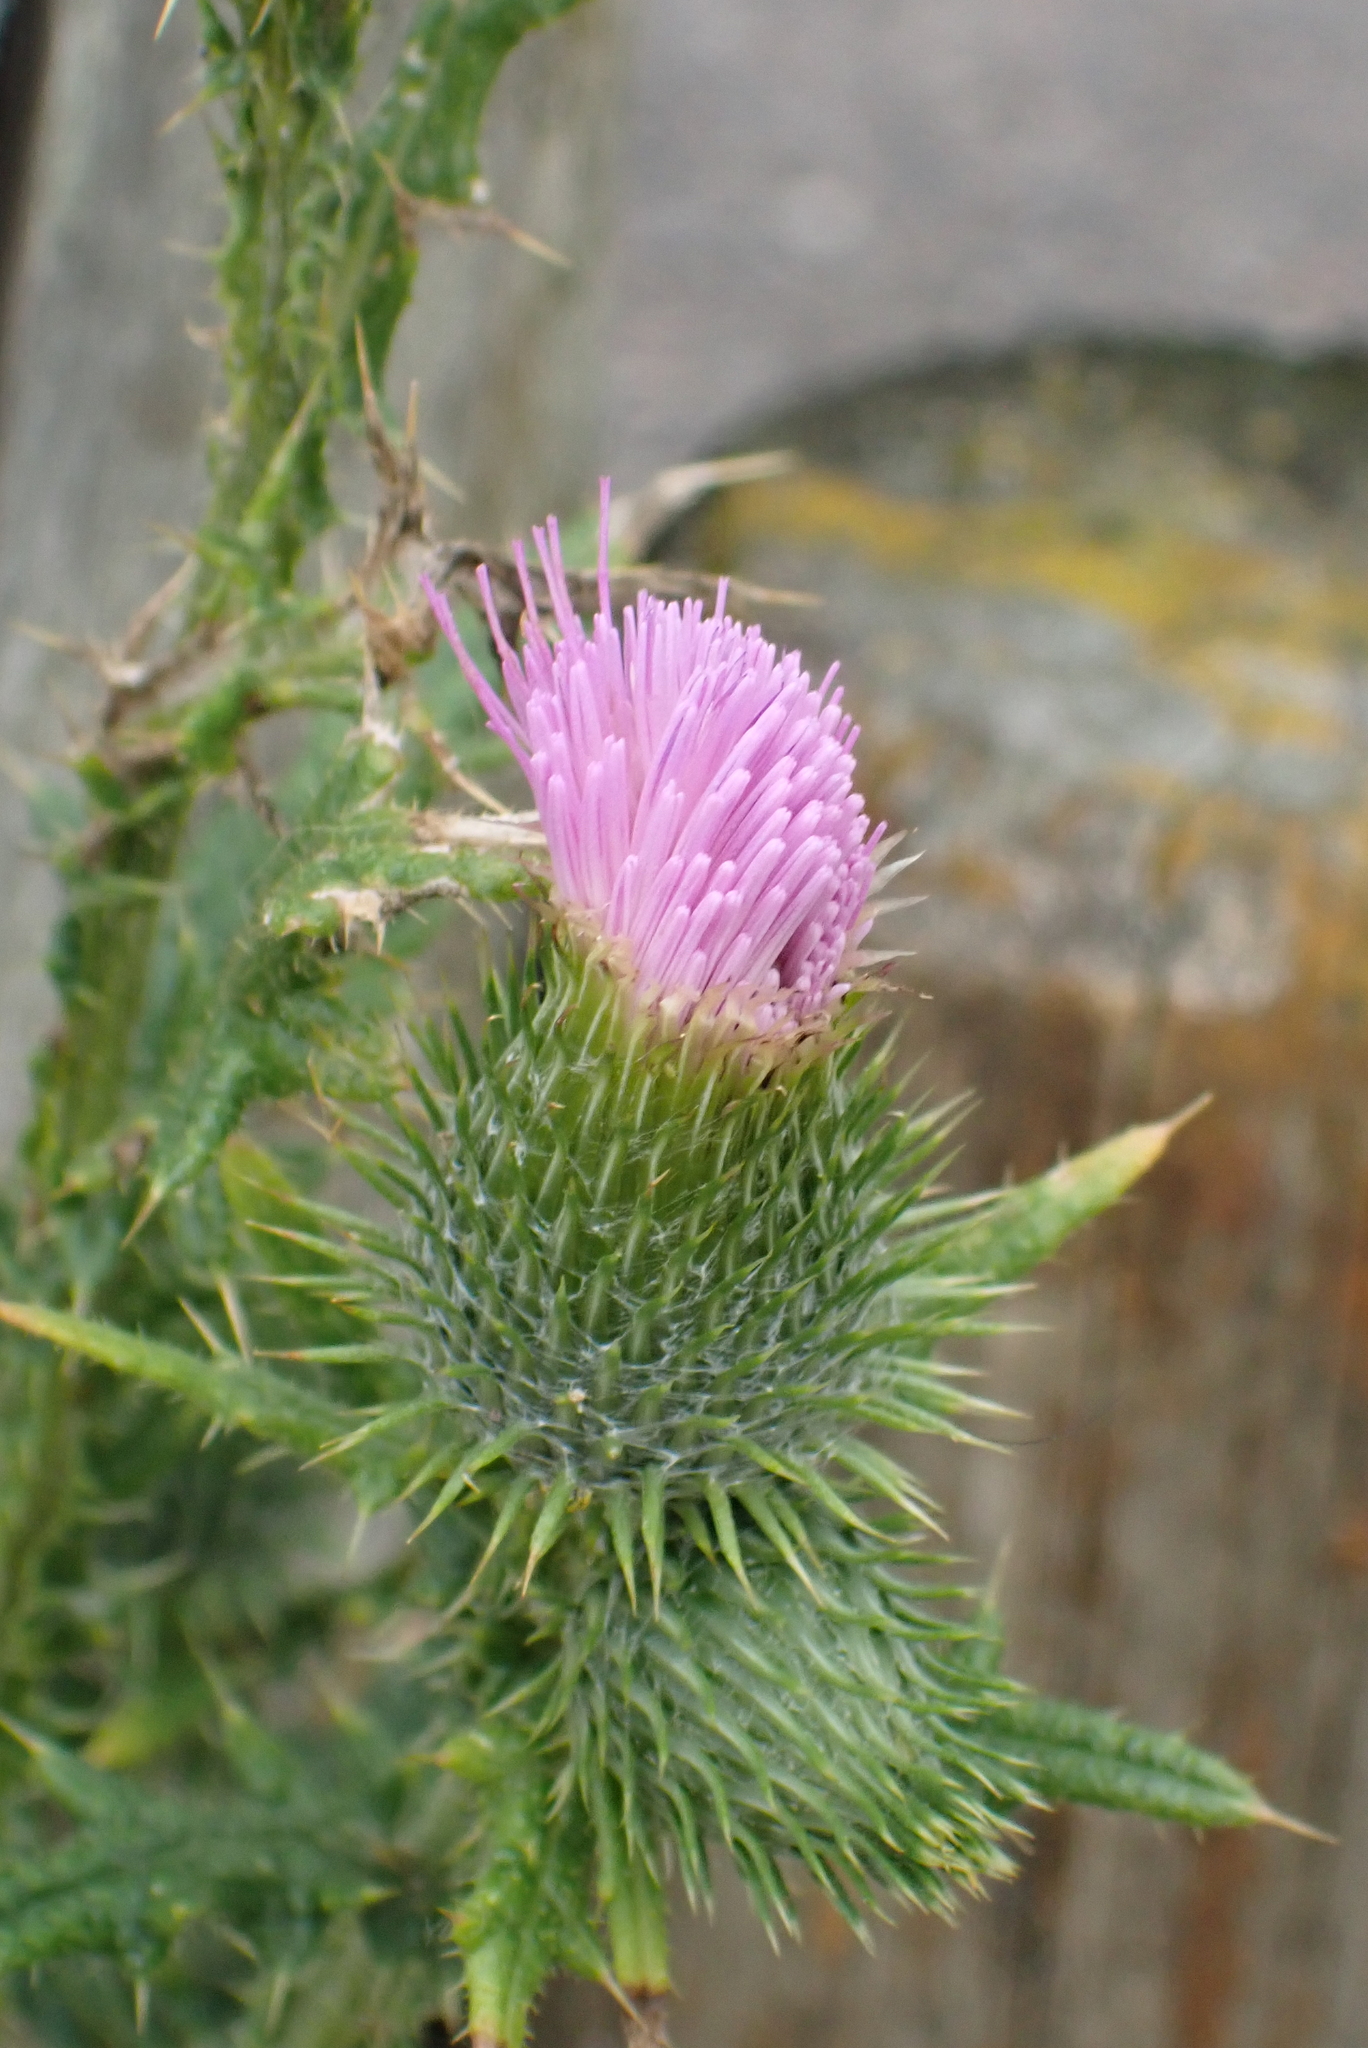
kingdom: Plantae
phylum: Tracheophyta
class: Magnoliopsida
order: Asterales
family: Asteraceae
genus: Cirsium
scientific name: Cirsium vulgare
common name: Bull thistle
